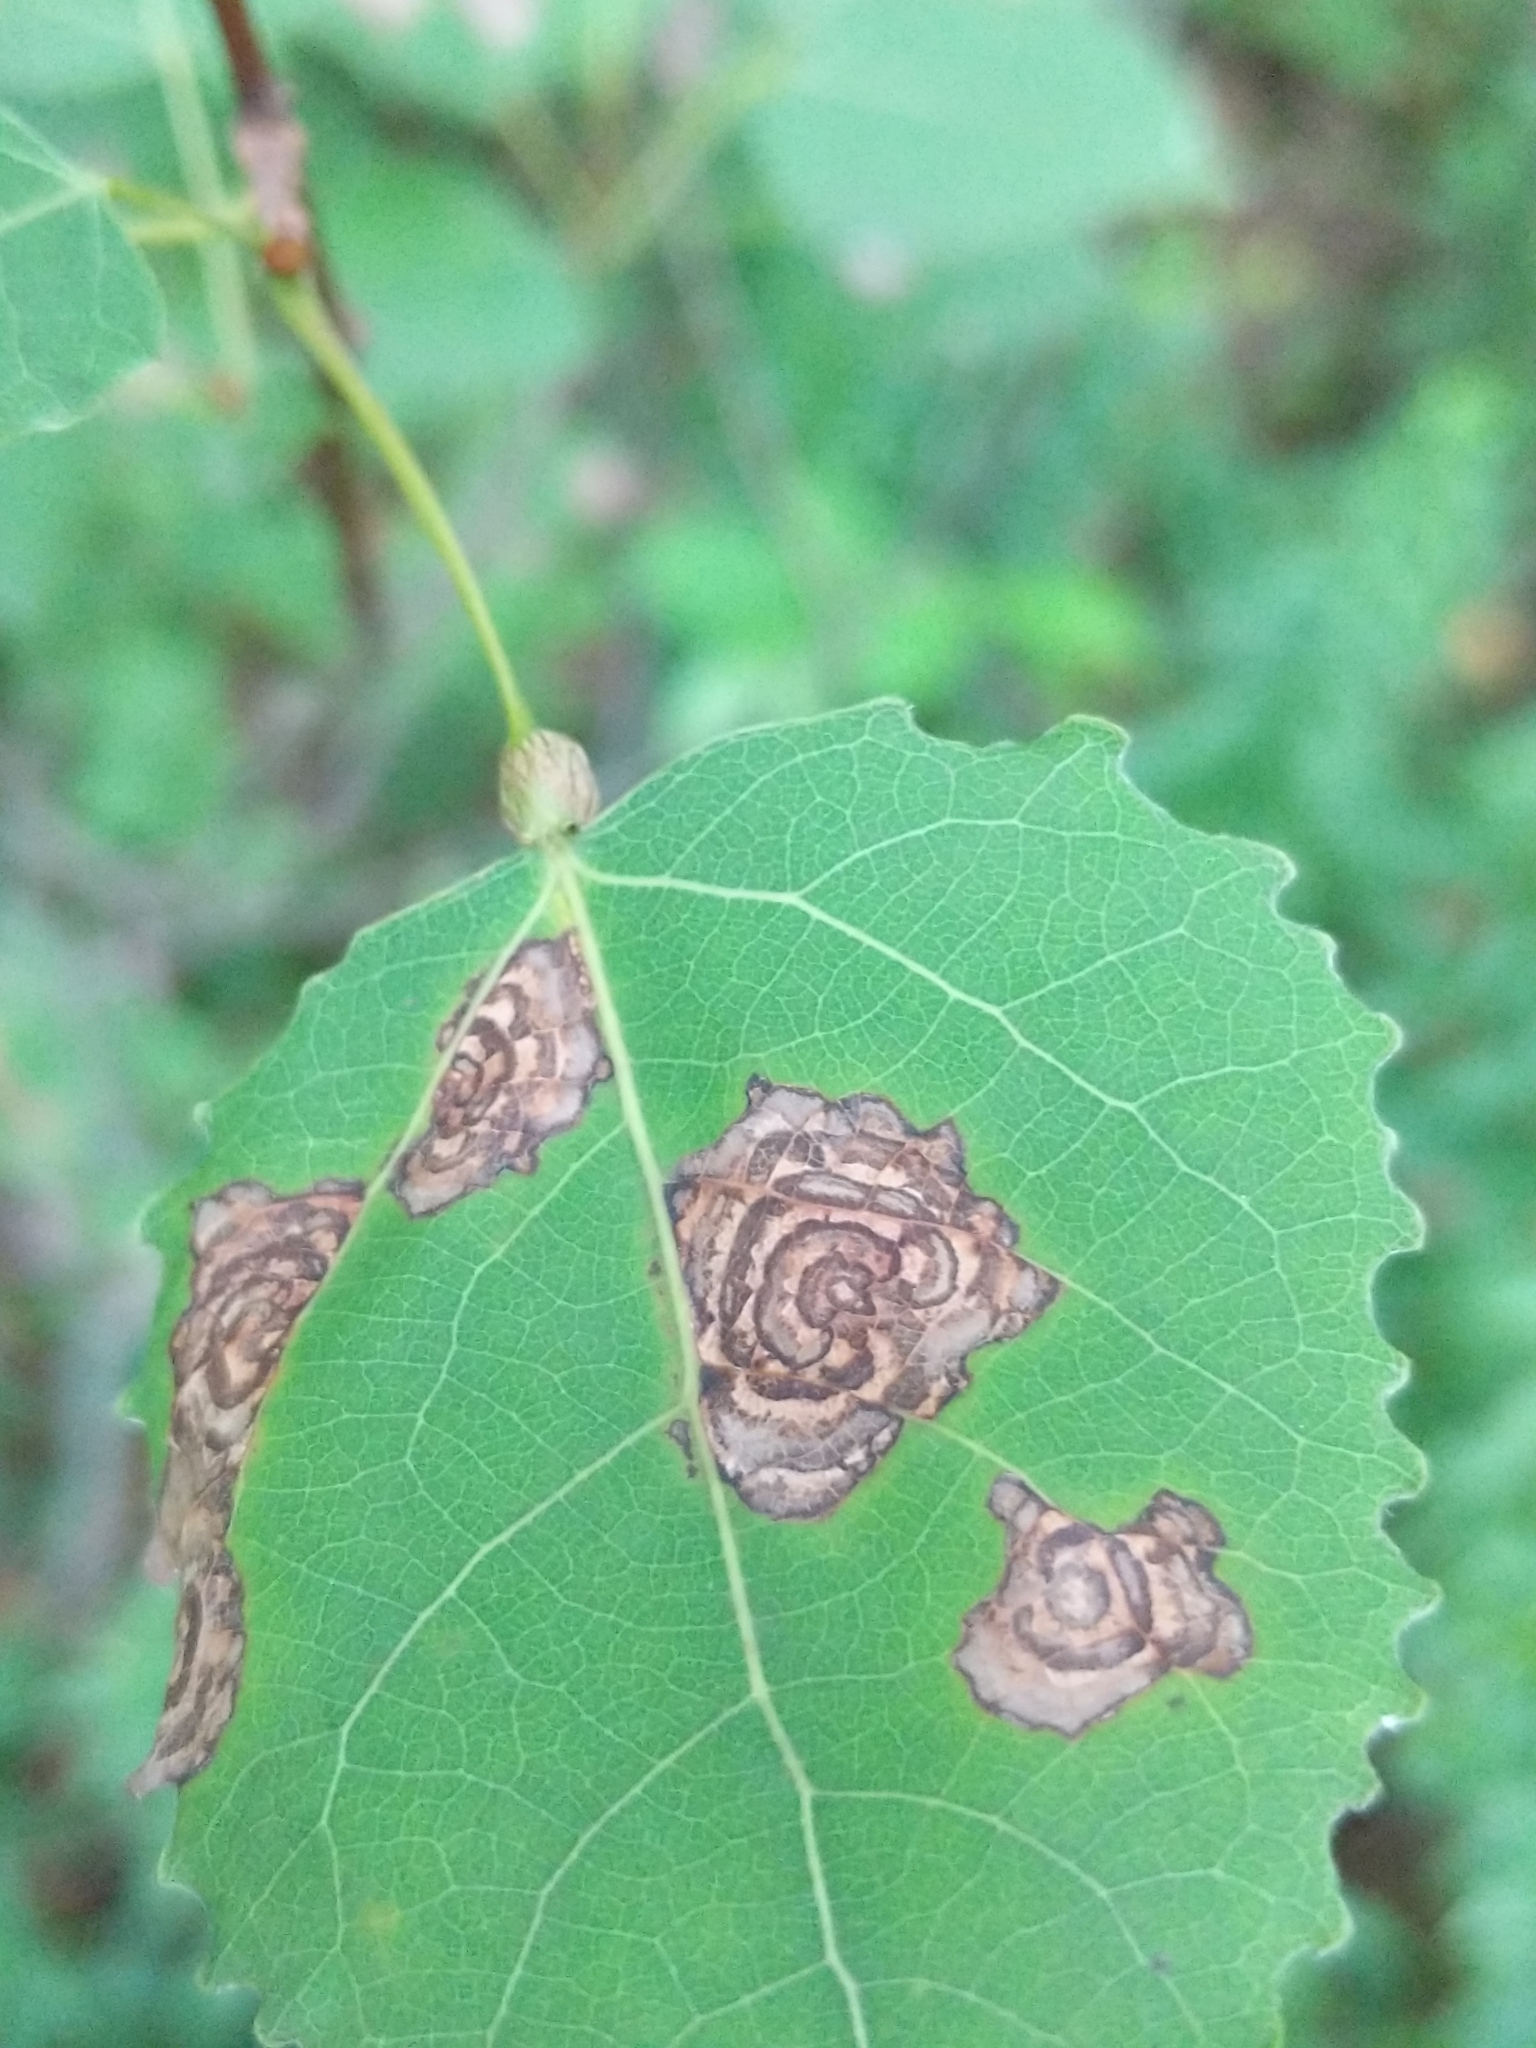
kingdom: Animalia
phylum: Arthropoda
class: Insecta
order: Lepidoptera
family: Nepticulidae
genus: Ectoedemia
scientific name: Ectoedemia populella
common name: Aspen petiole gall moth
